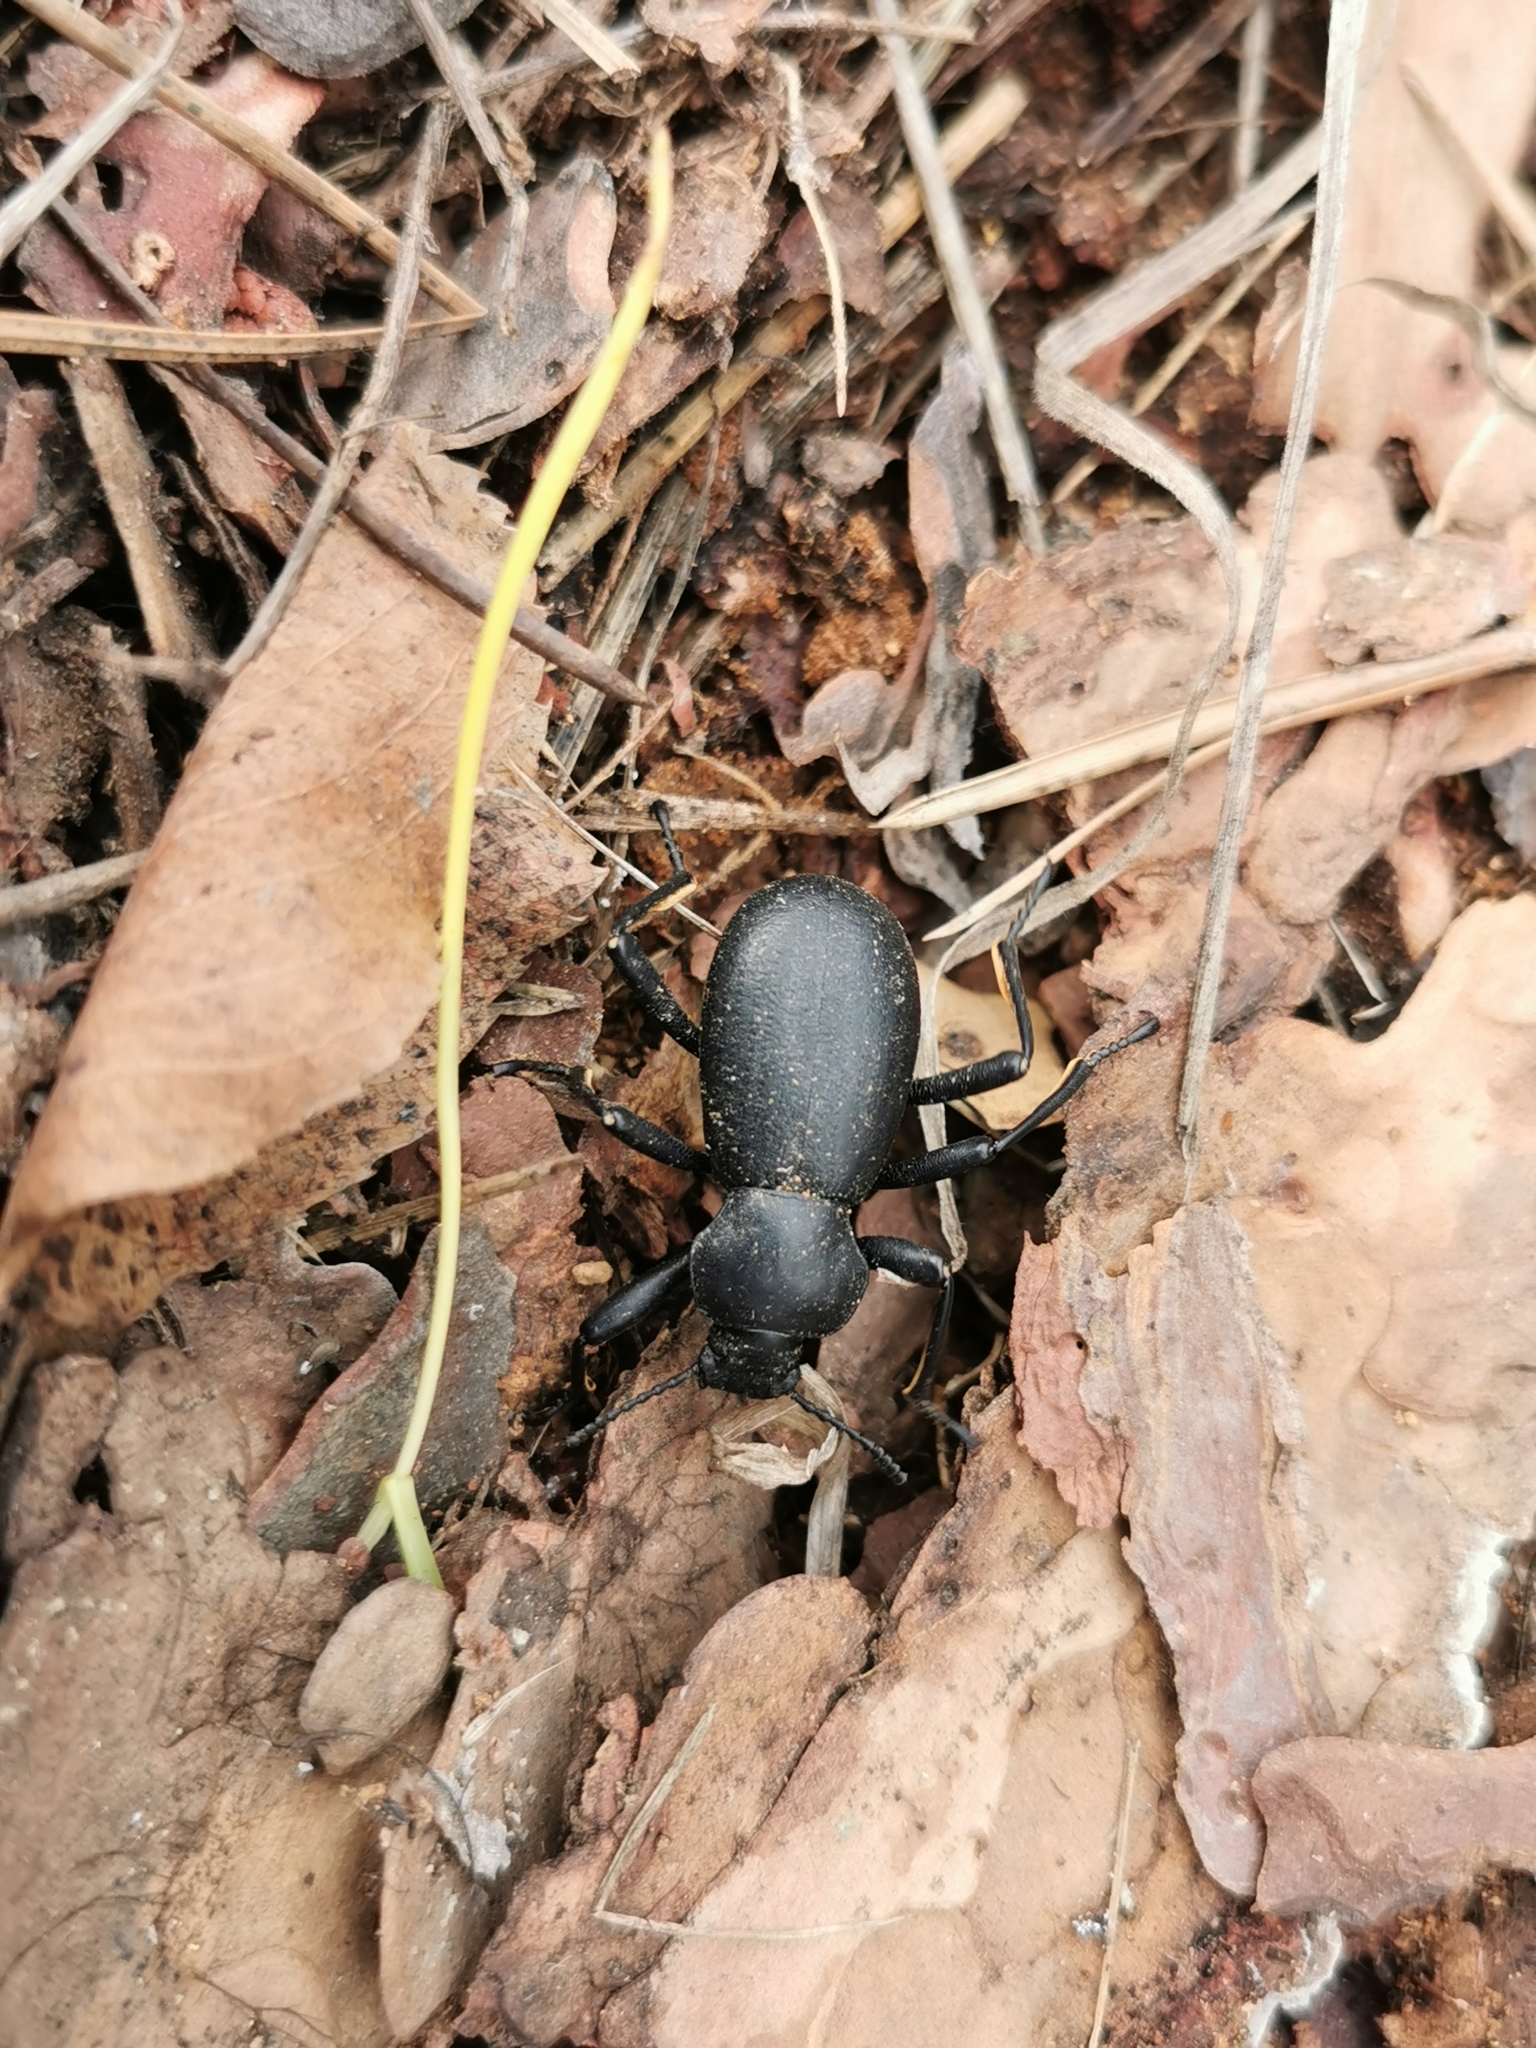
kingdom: Animalia
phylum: Arthropoda
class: Insecta
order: Coleoptera
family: Tenebrionidae
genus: Coelocnemis
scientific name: Coelocnemis dilaticollis
